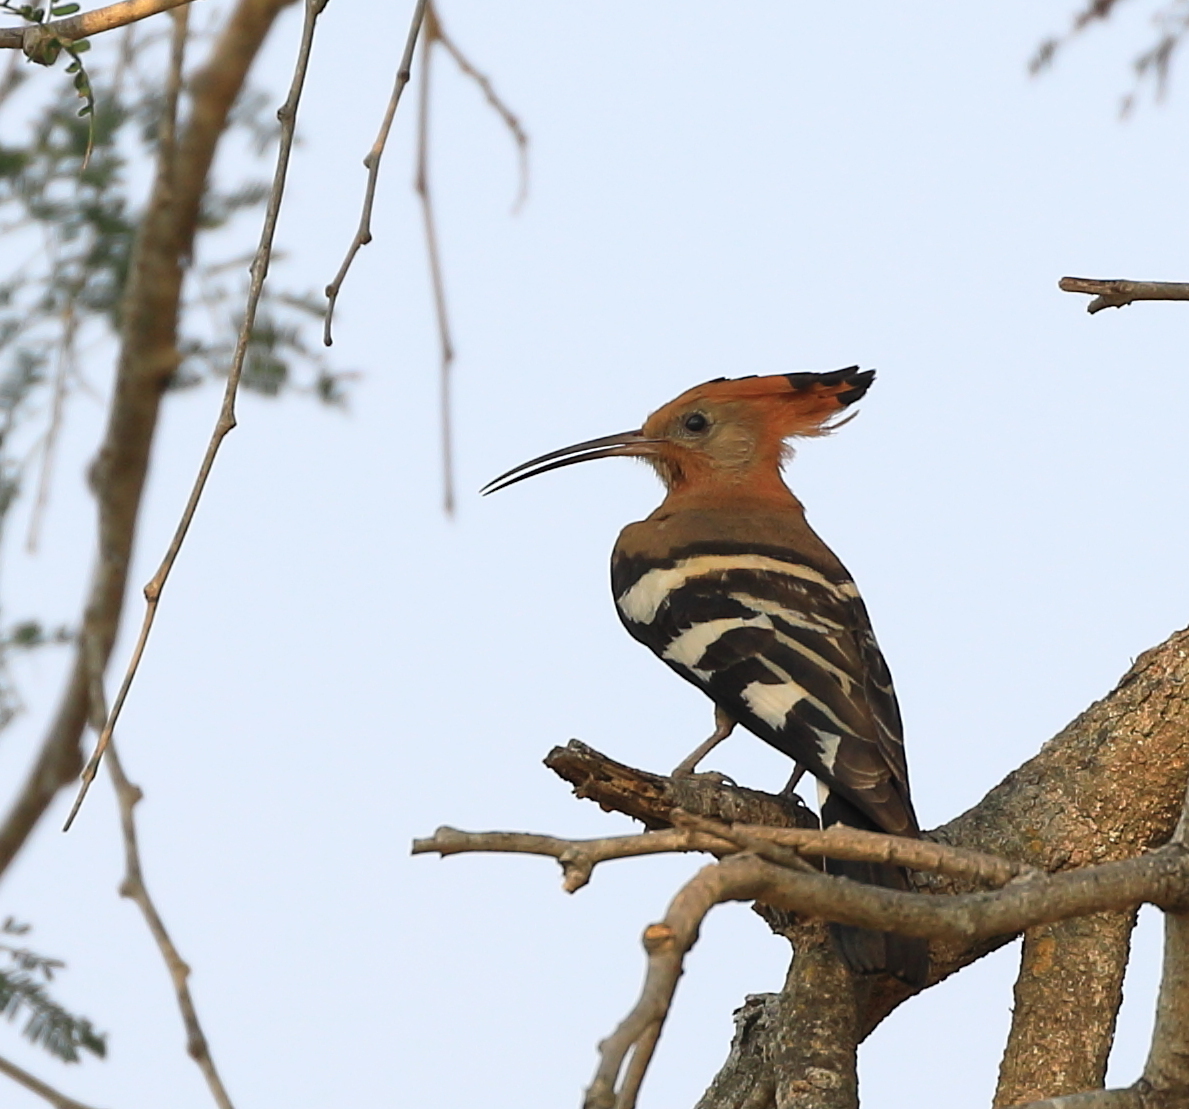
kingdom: Animalia
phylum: Chordata
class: Aves
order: Bucerotiformes
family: Upupidae
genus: Upupa
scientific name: Upupa epops
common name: Eurasian hoopoe
